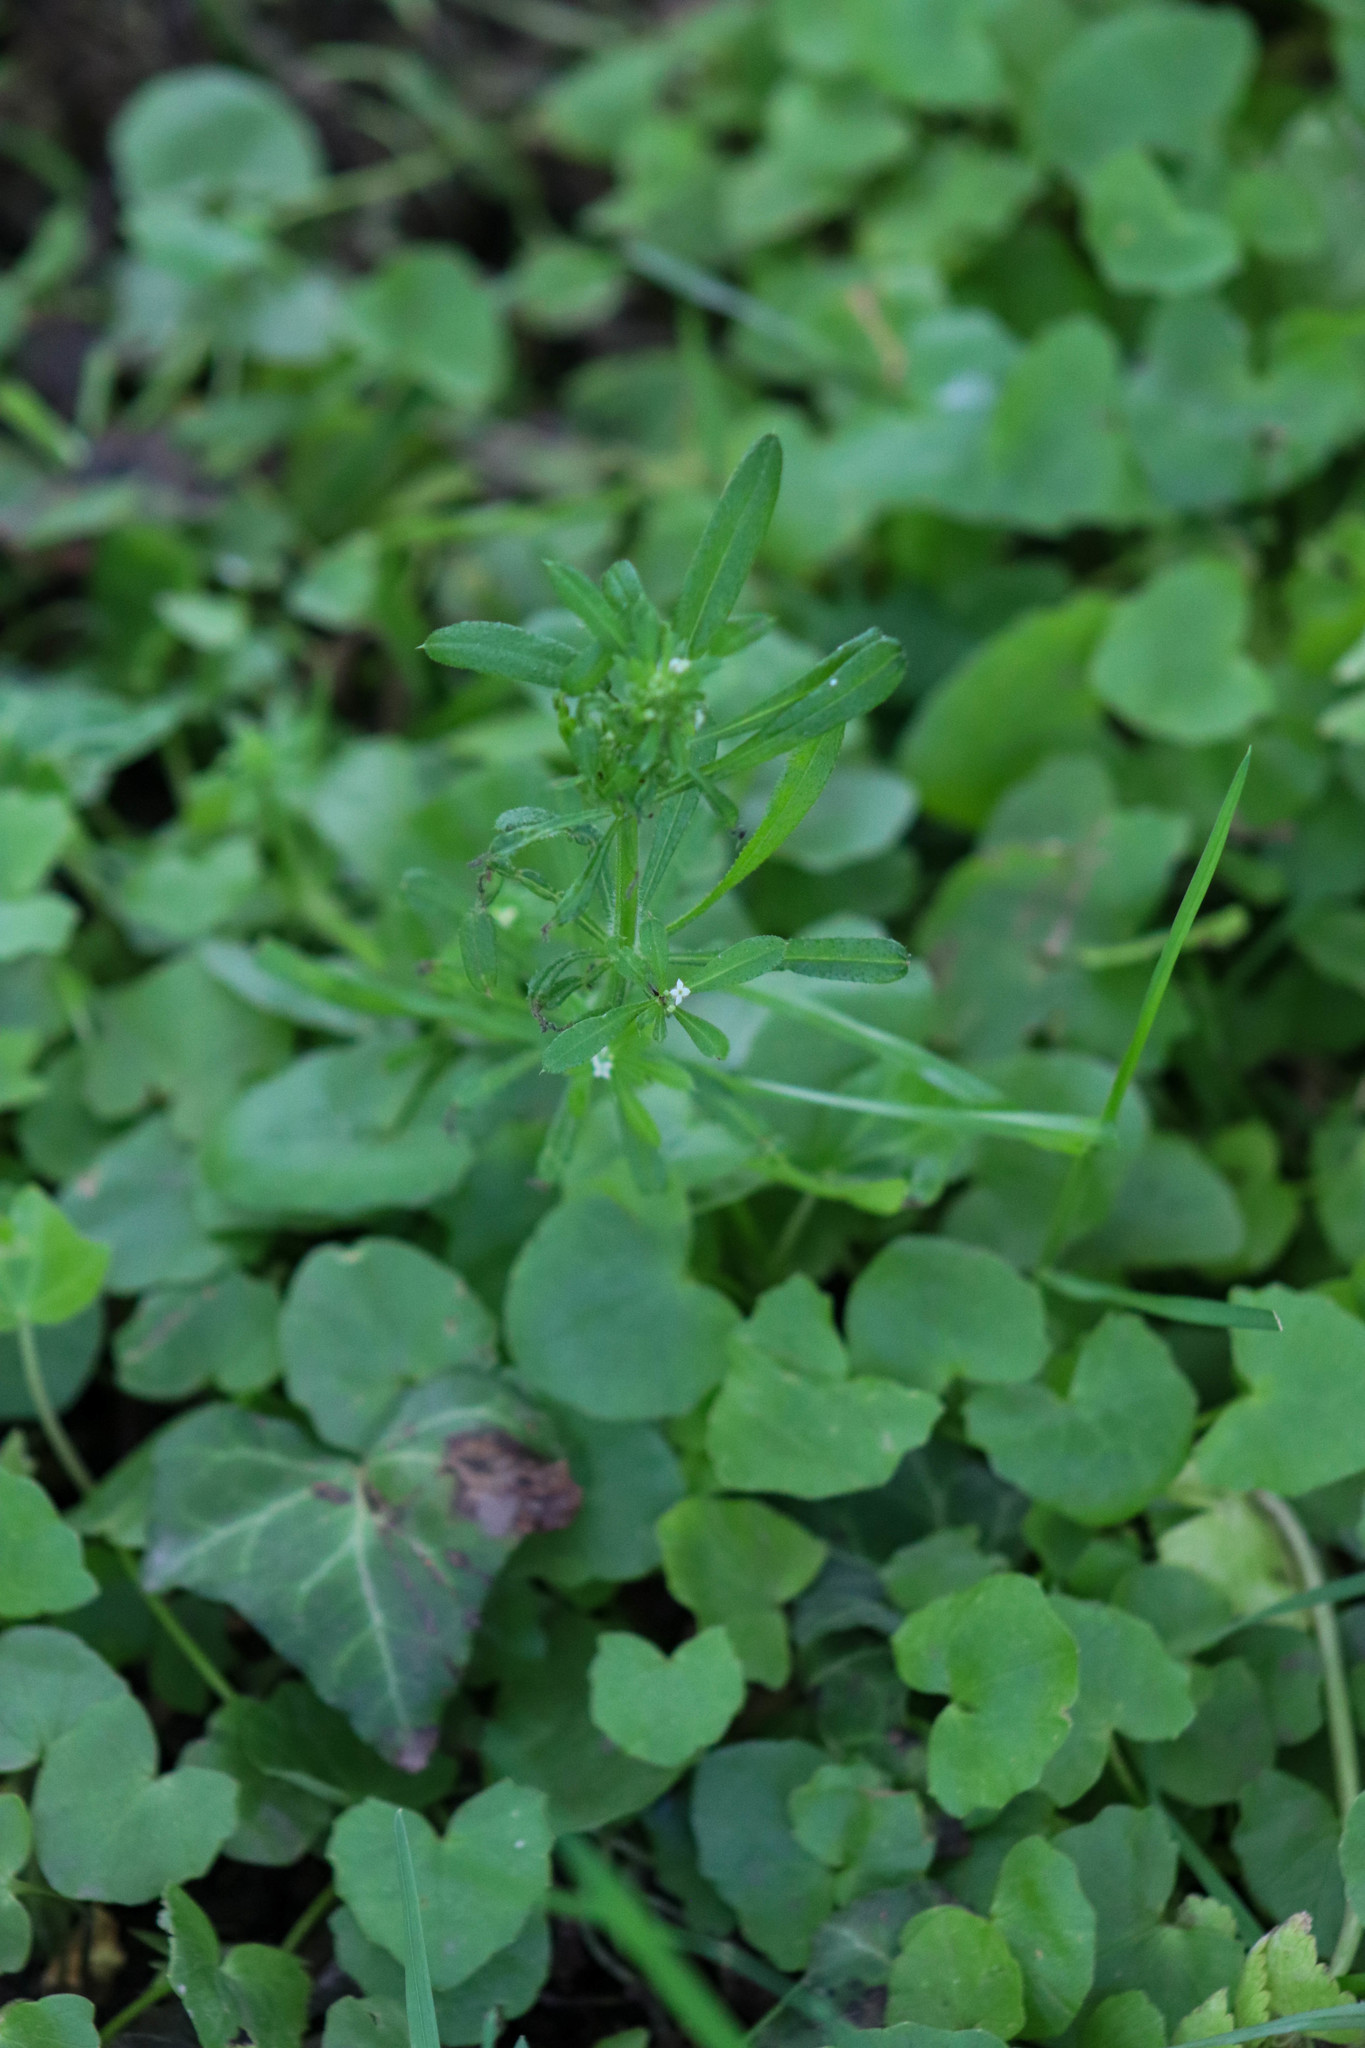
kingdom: Plantae
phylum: Tracheophyta
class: Magnoliopsida
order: Gentianales
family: Rubiaceae
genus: Galium
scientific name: Galium aparine
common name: Cleavers
